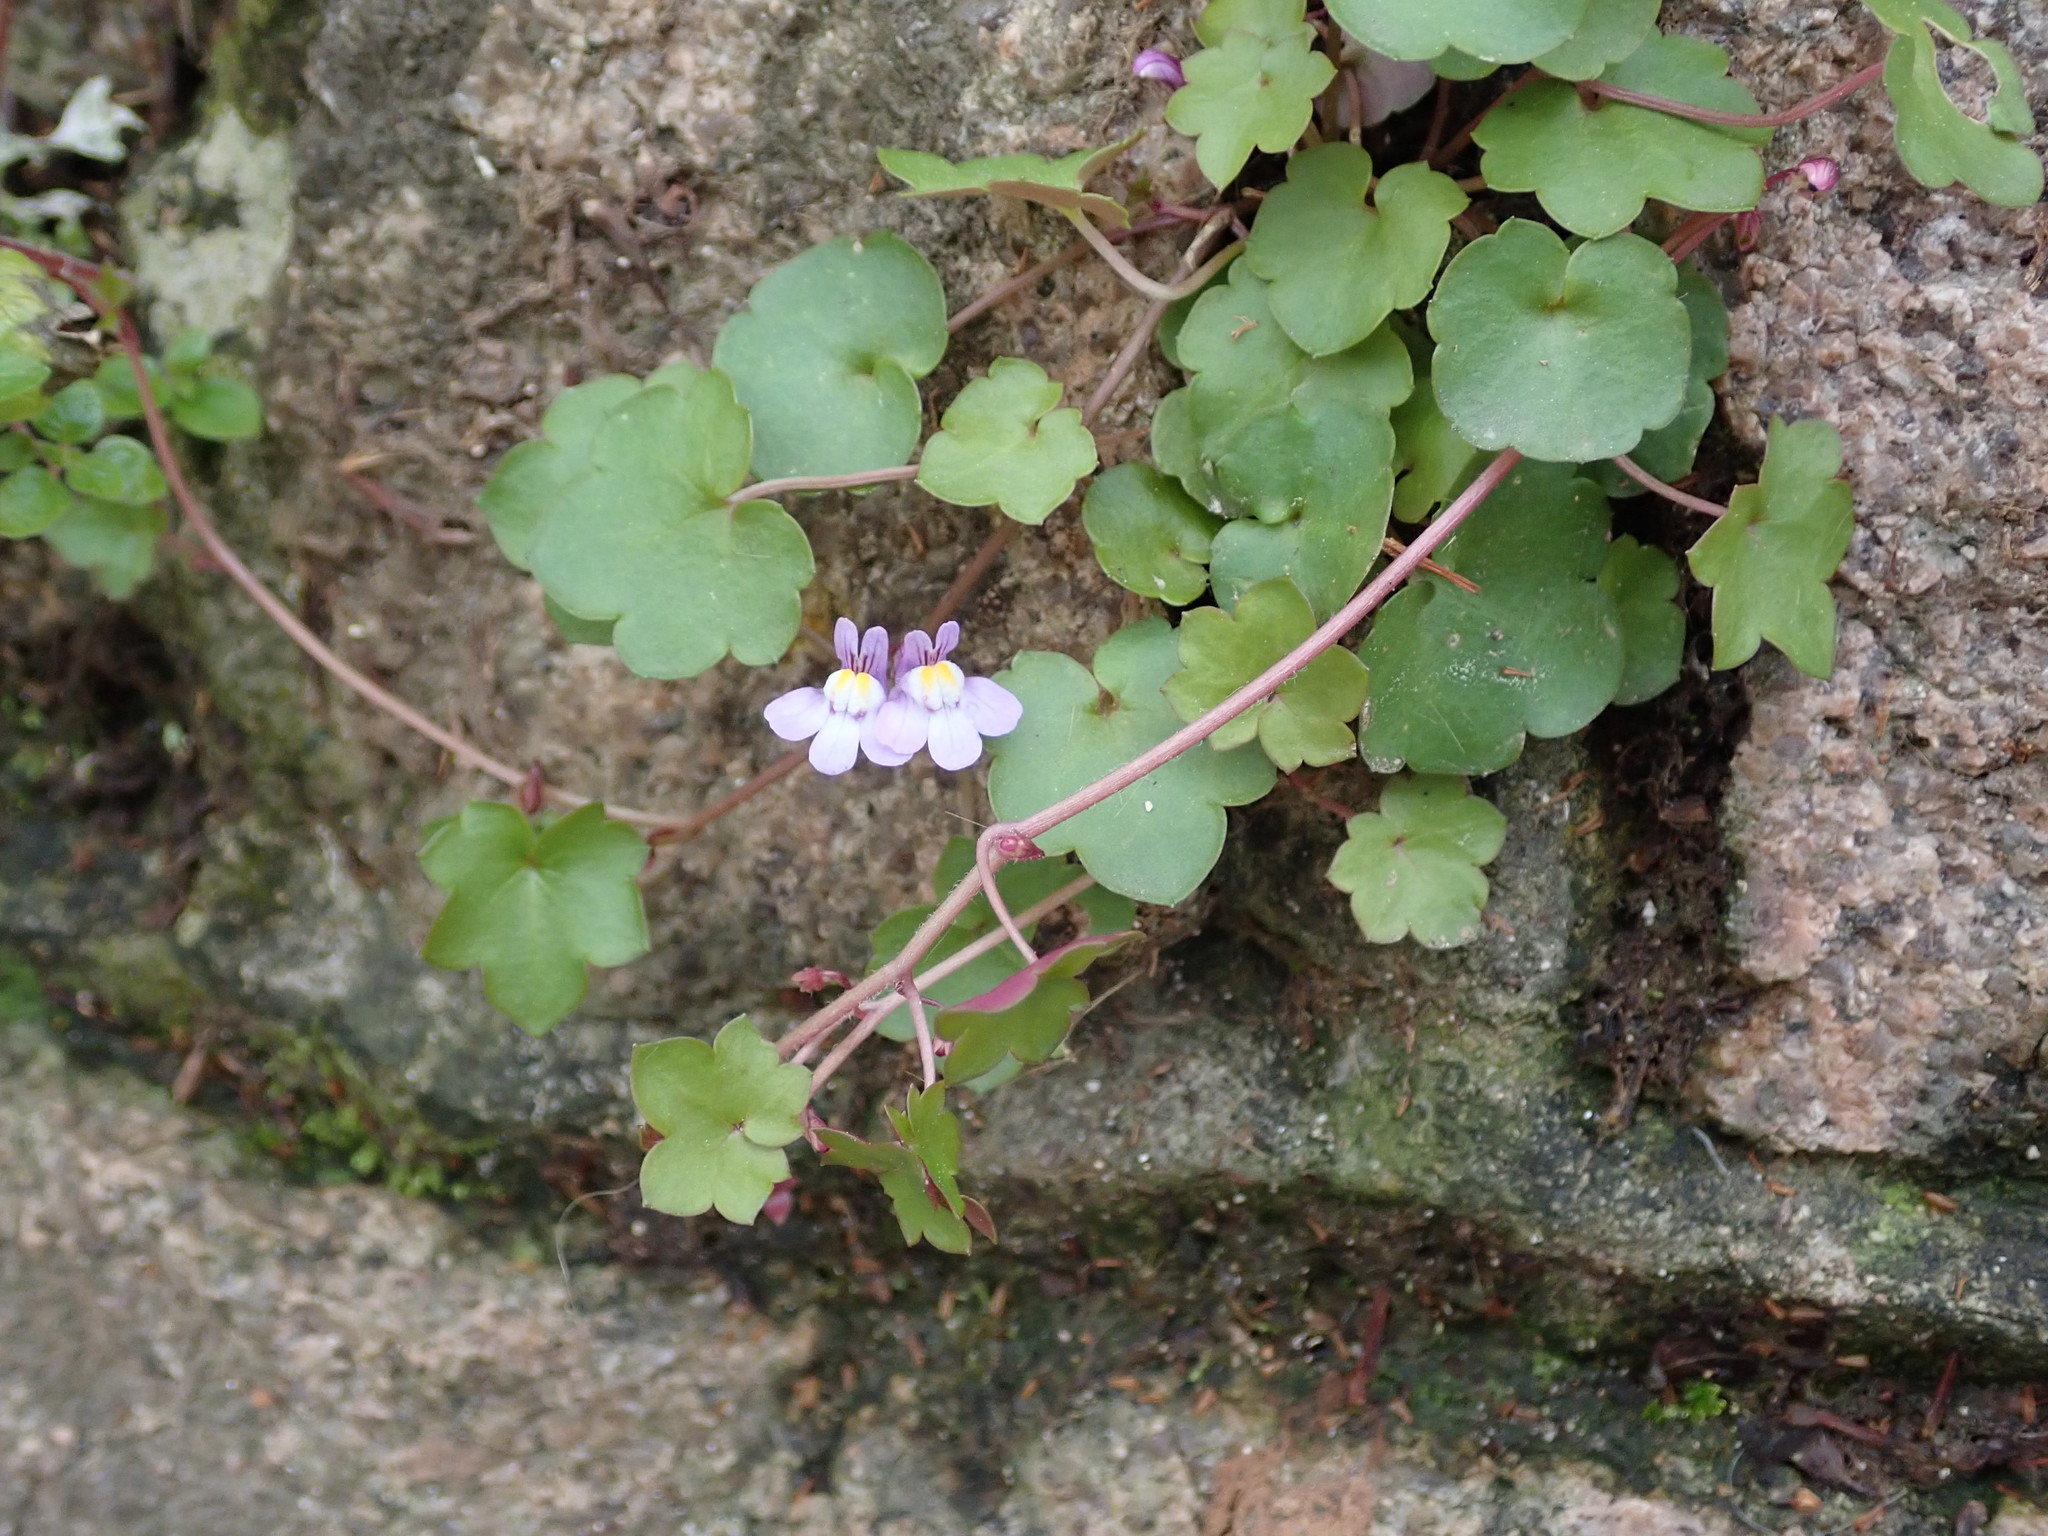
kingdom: Plantae
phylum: Tracheophyta
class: Magnoliopsida
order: Lamiales
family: Plantaginaceae
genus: Cymbalaria
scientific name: Cymbalaria muralis
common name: Ivy-leaved toadflax
